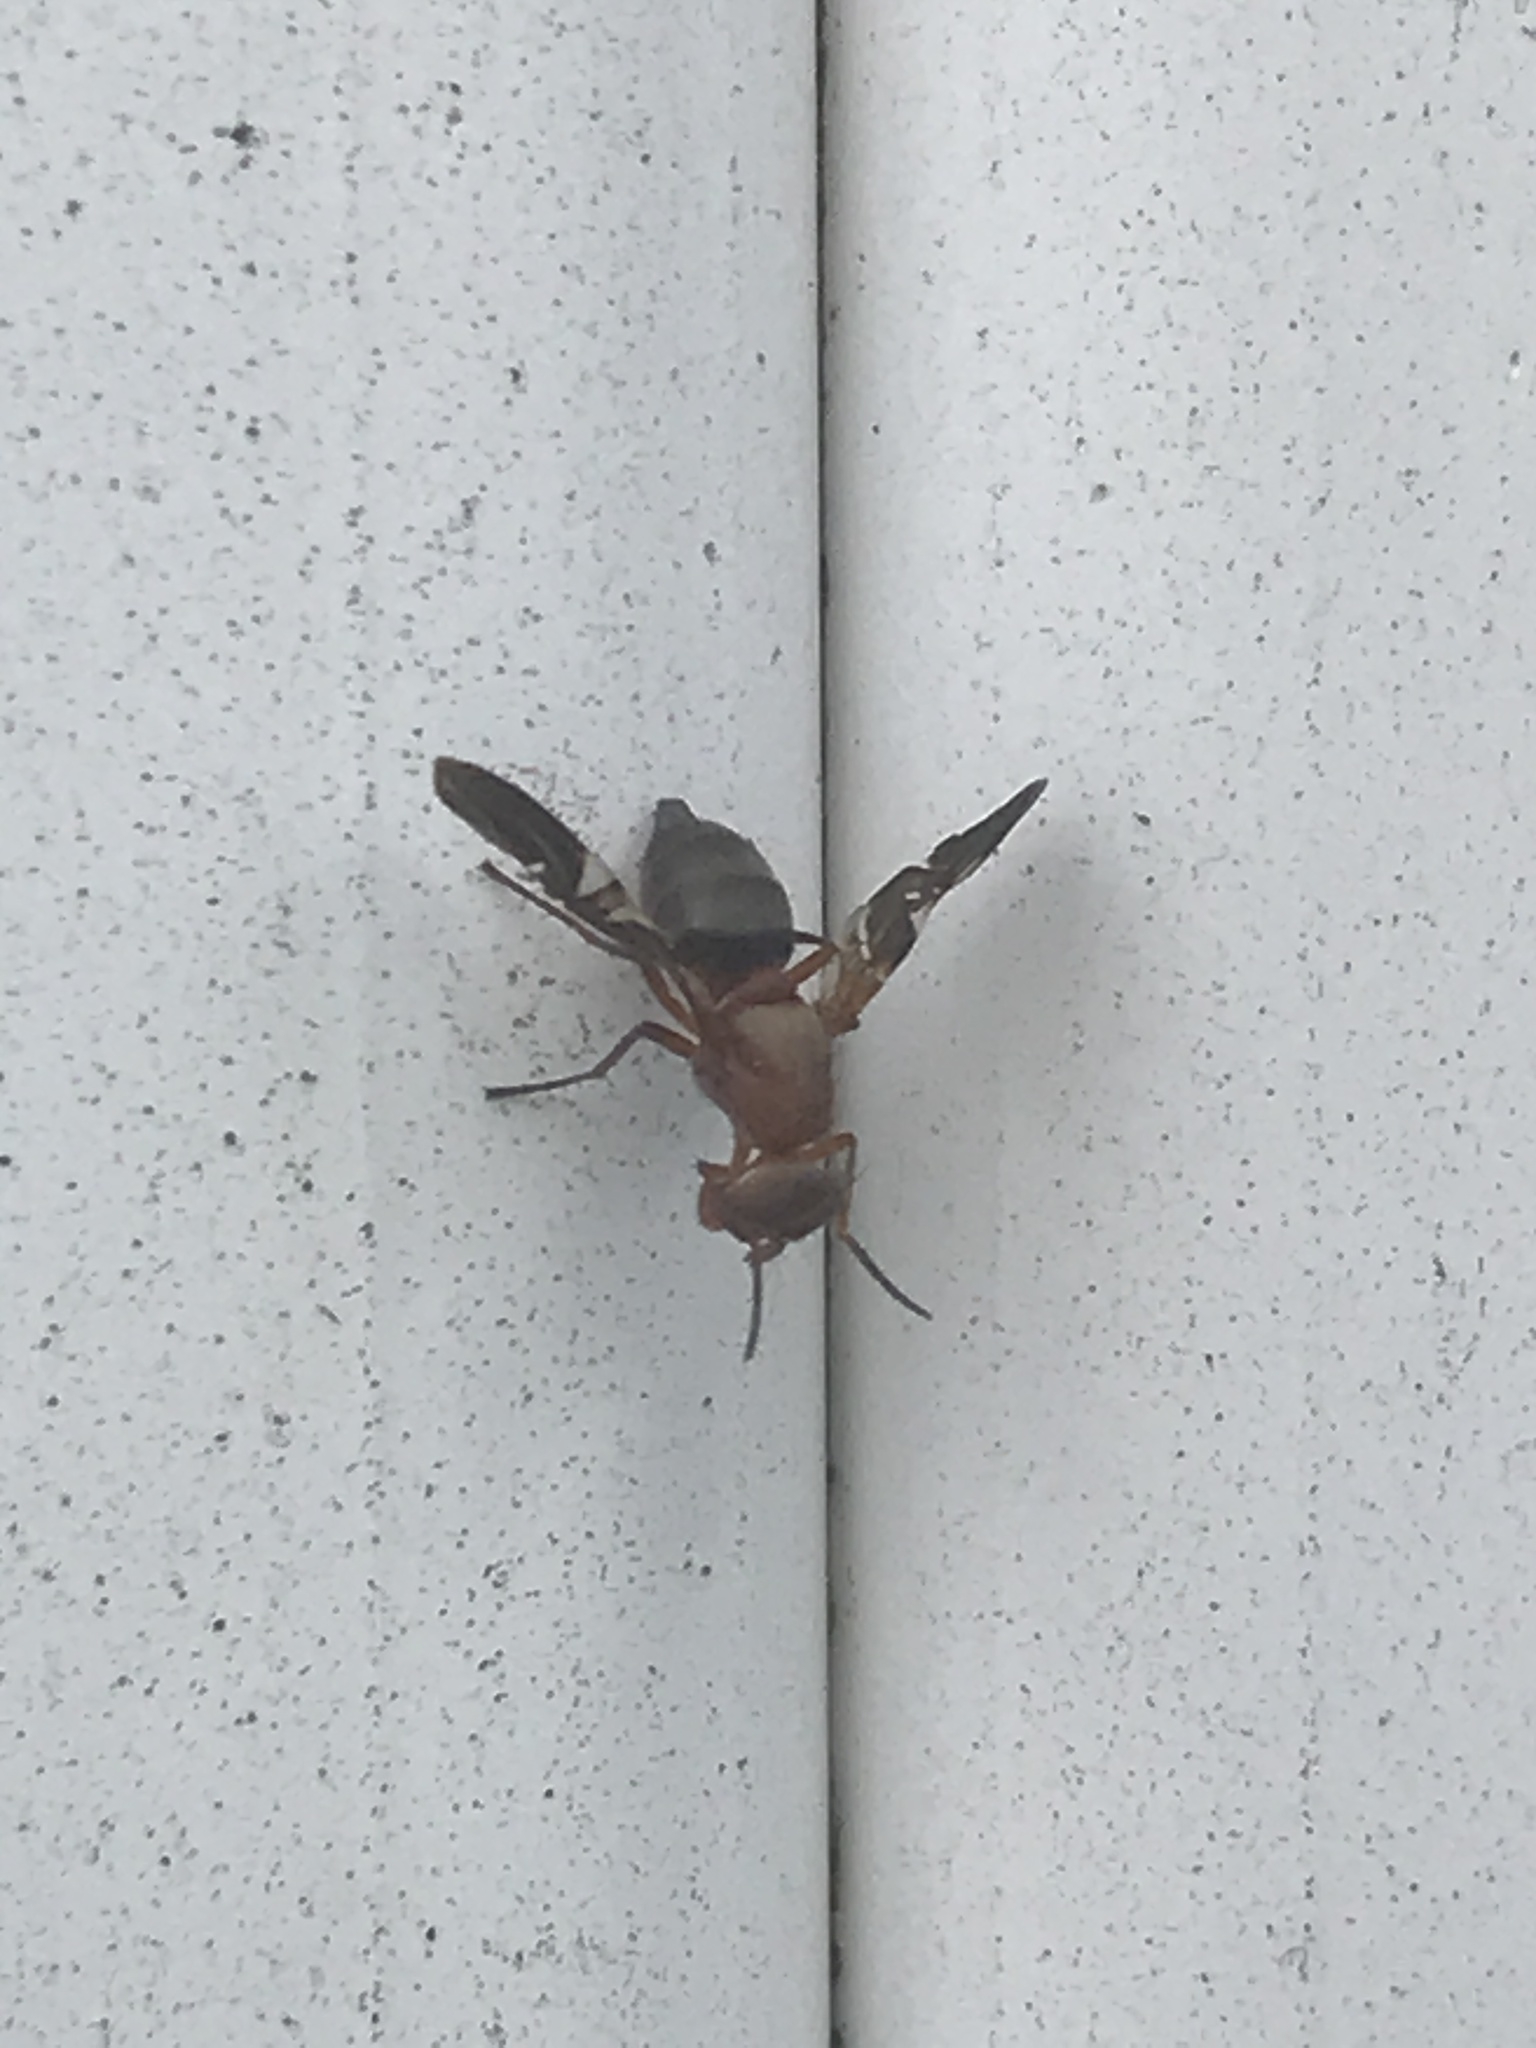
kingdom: Animalia
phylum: Arthropoda
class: Insecta
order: Diptera
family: Ulidiidae
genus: Delphinia
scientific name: Delphinia picta
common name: Common picture-winged fly
